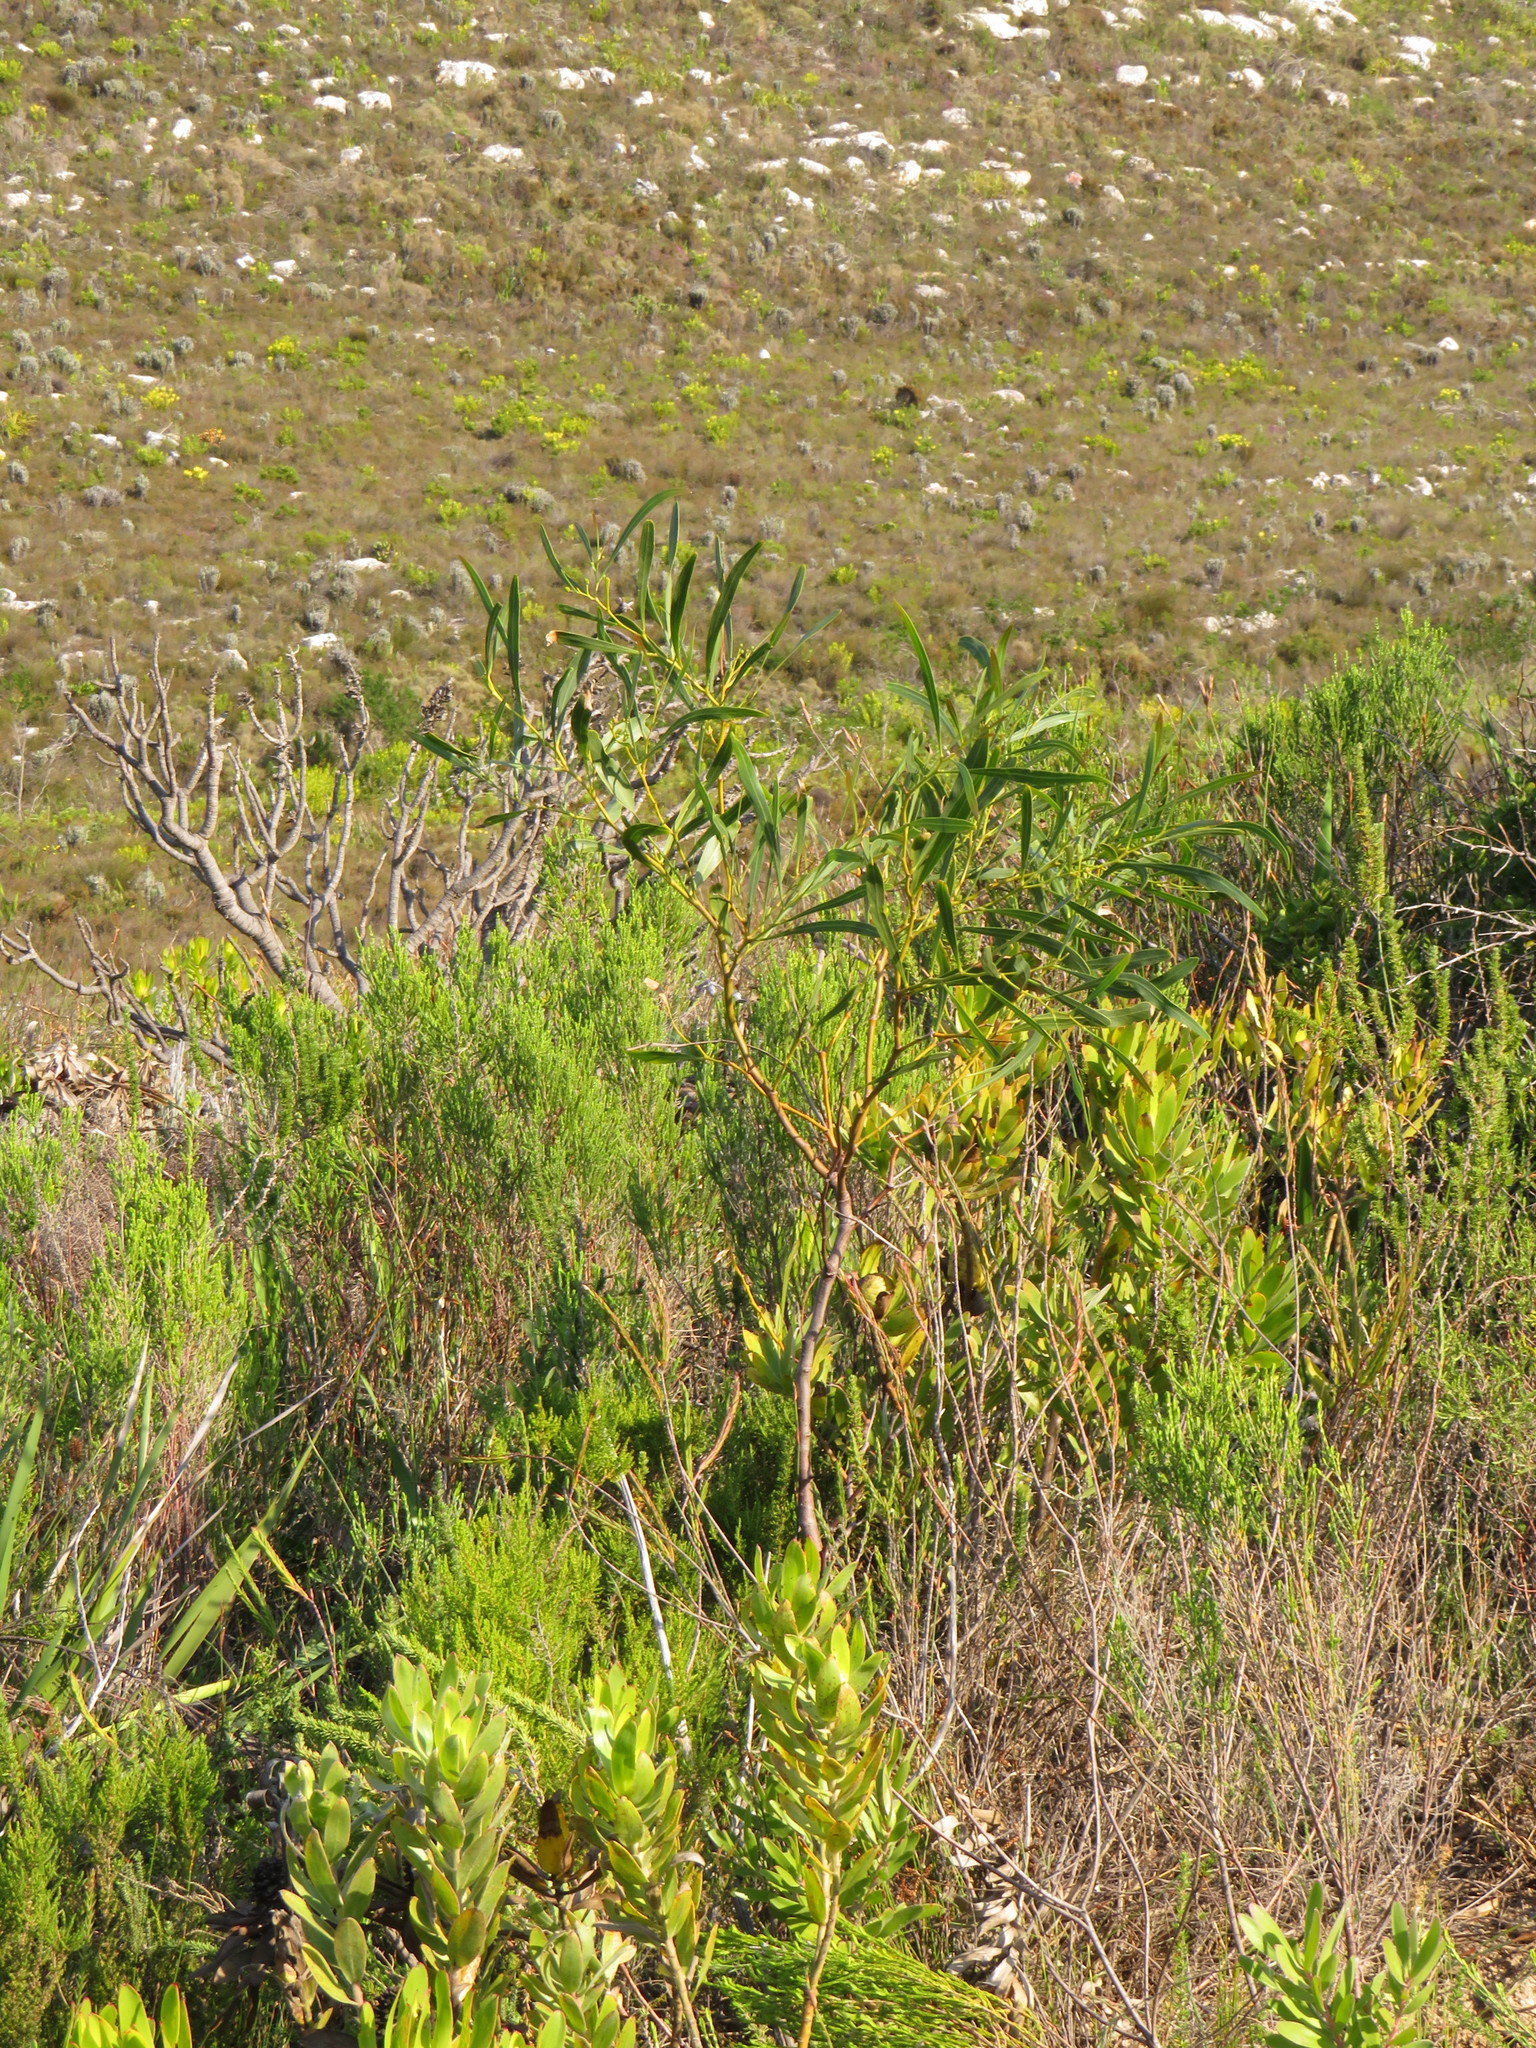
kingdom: Plantae
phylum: Tracheophyta
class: Magnoliopsida
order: Fabales
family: Fabaceae
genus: Acacia
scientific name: Acacia saligna
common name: Orange wattle
